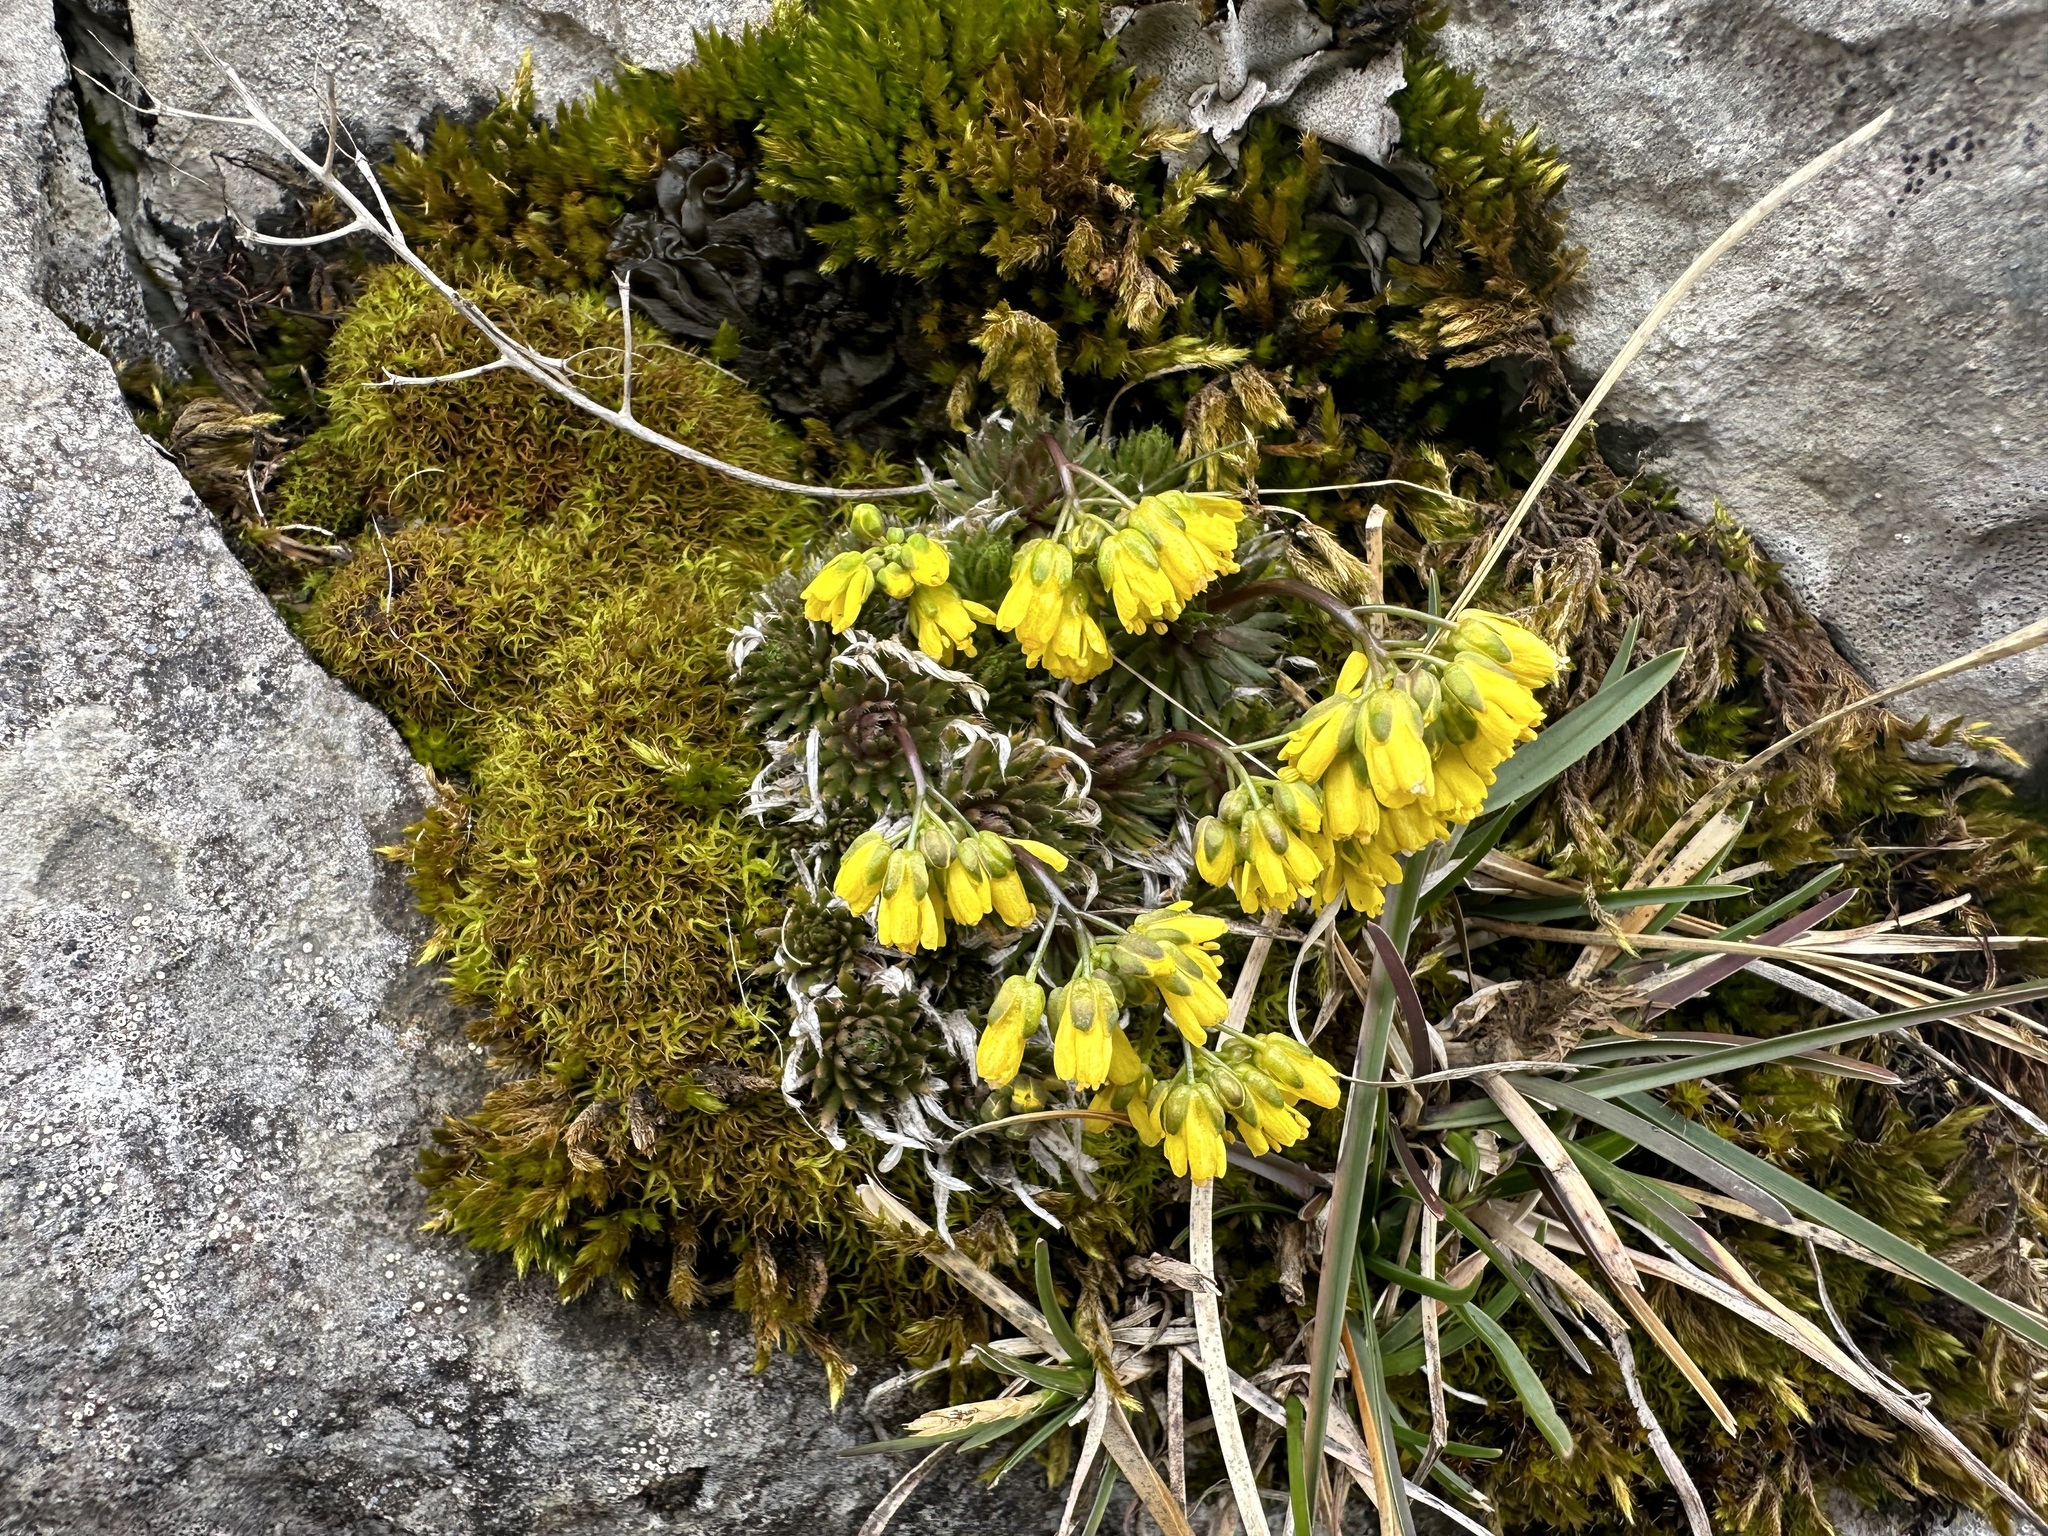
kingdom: Plantae
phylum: Tracheophyta
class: Magnoliopsida
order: Brassicales
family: Brassicaceae
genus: Draba
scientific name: Draba aizoides
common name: Yellow whitlowgrass
